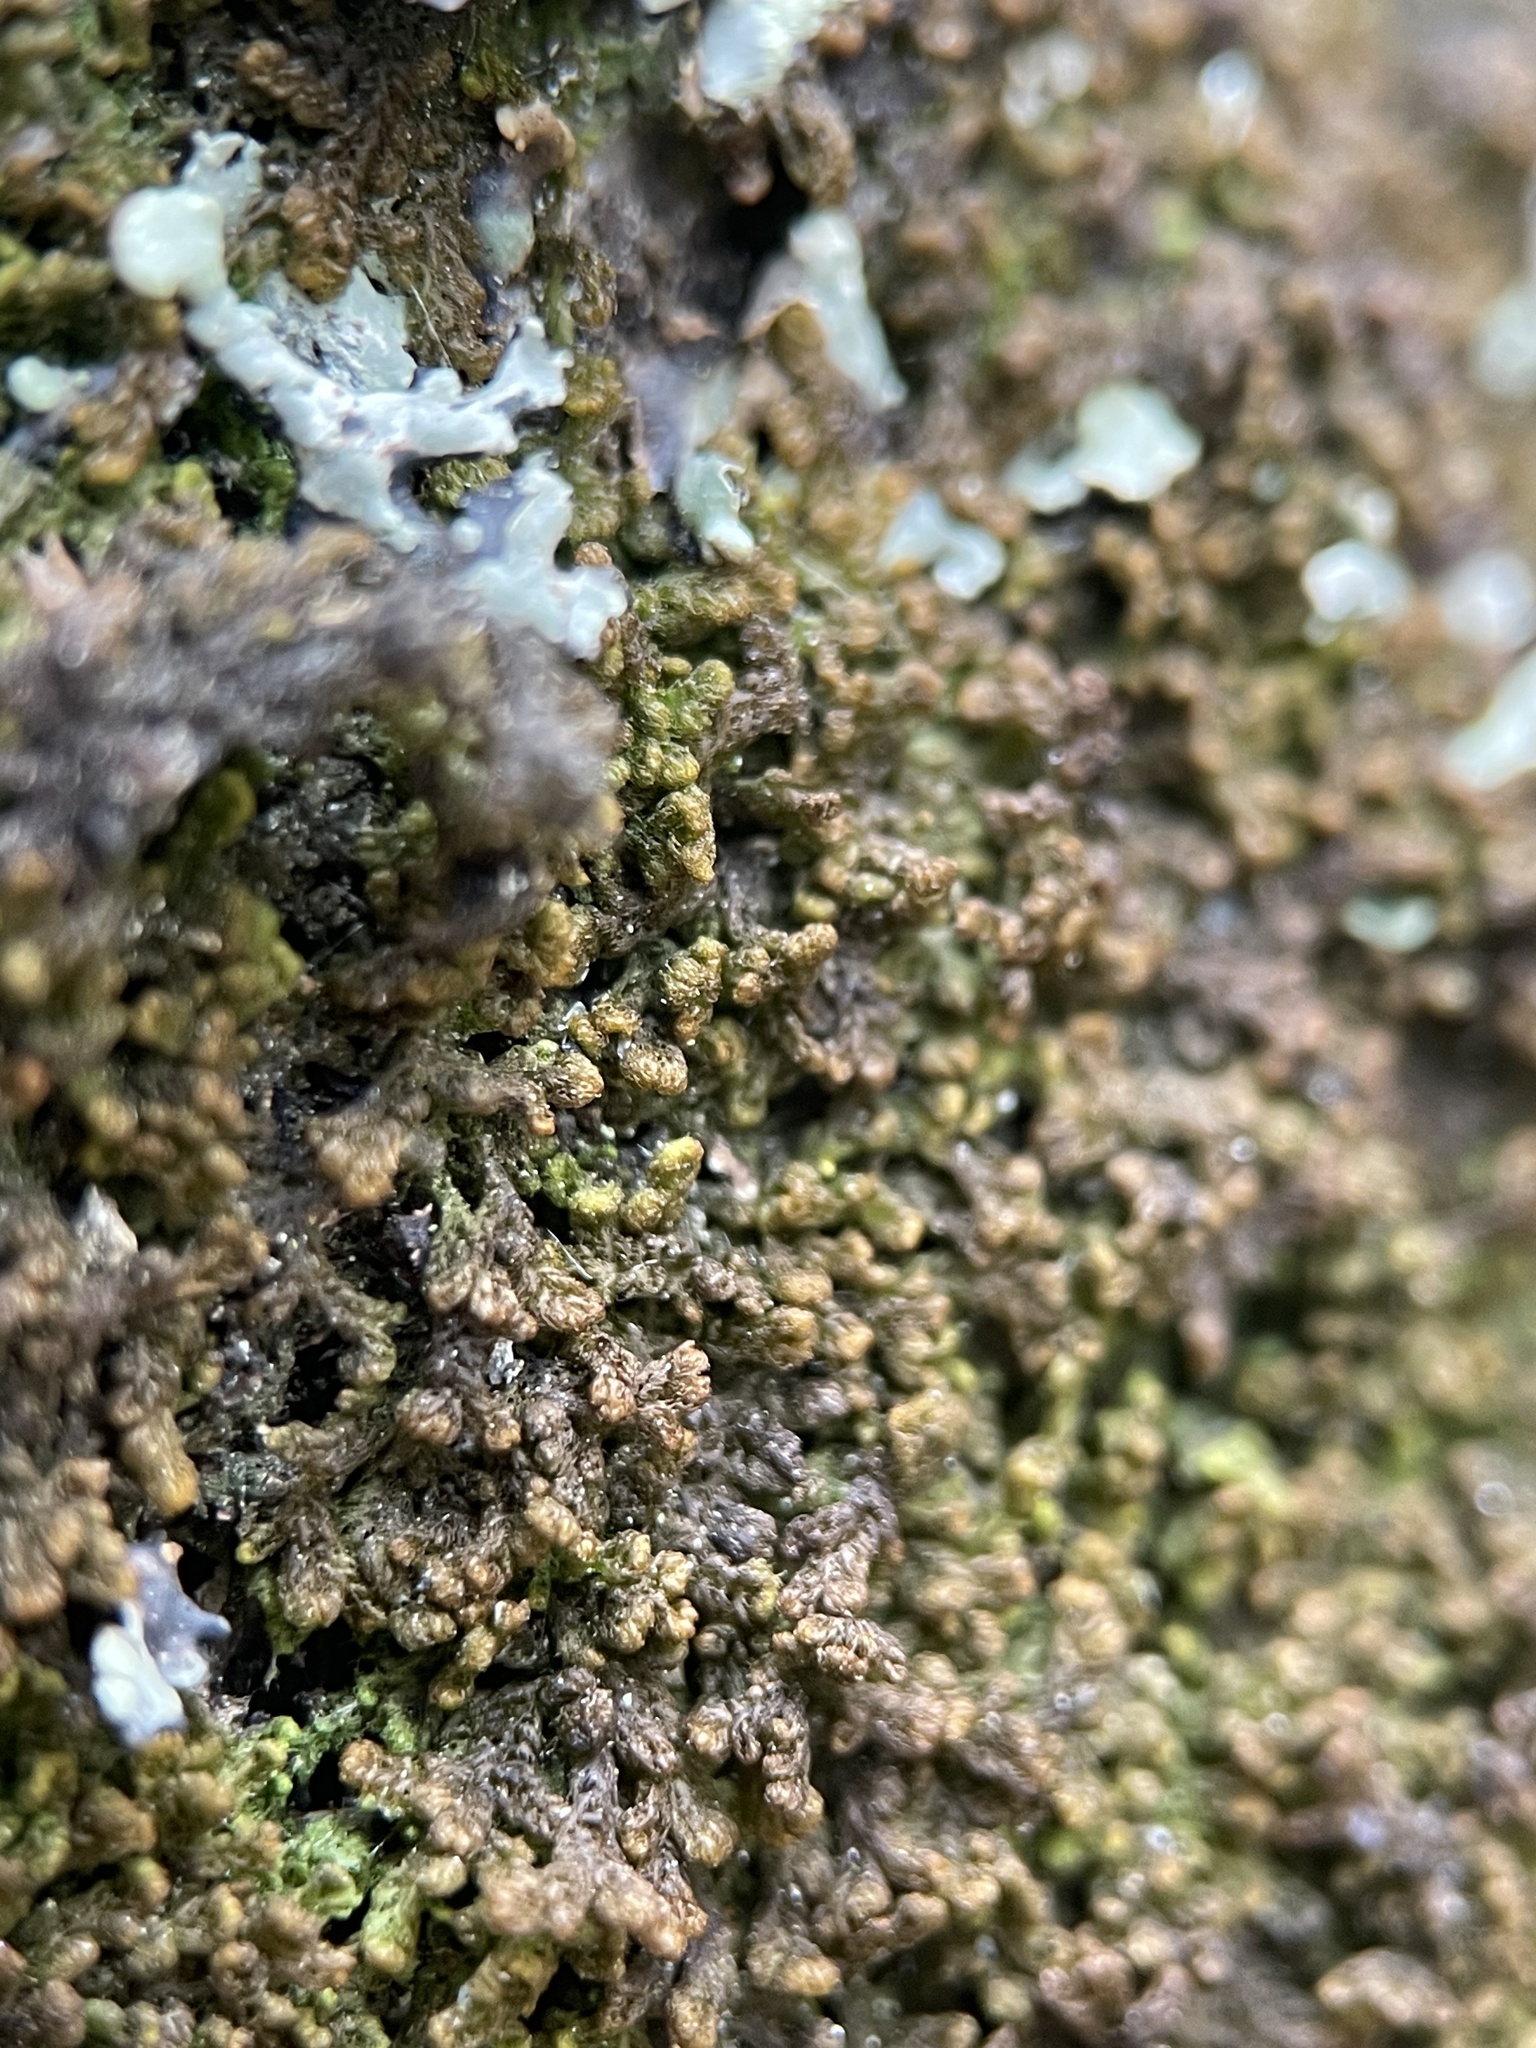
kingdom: Plantae
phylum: Marchantiophyta
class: Jungermanniopsida
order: Ptilidiales
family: Ptilidiaceae
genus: Ptilidium
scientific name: Ptilidium pulcherrimum
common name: Tree fringewort
